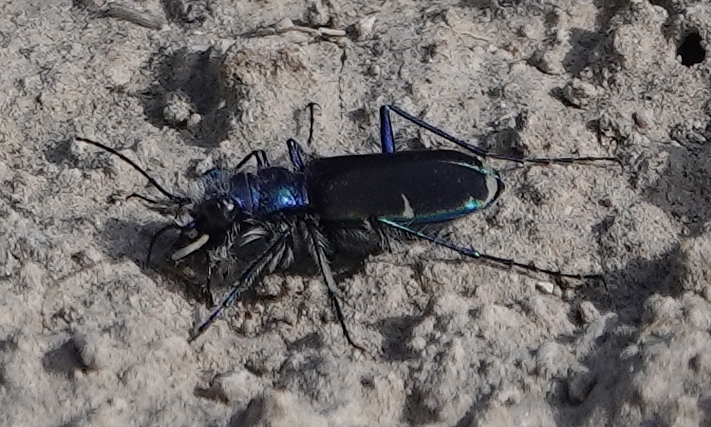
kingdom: Animalia
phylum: Arthropoda
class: Insecta
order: Coleoptera
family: Carabidae
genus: Cicindela
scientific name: Cicindela splendida
